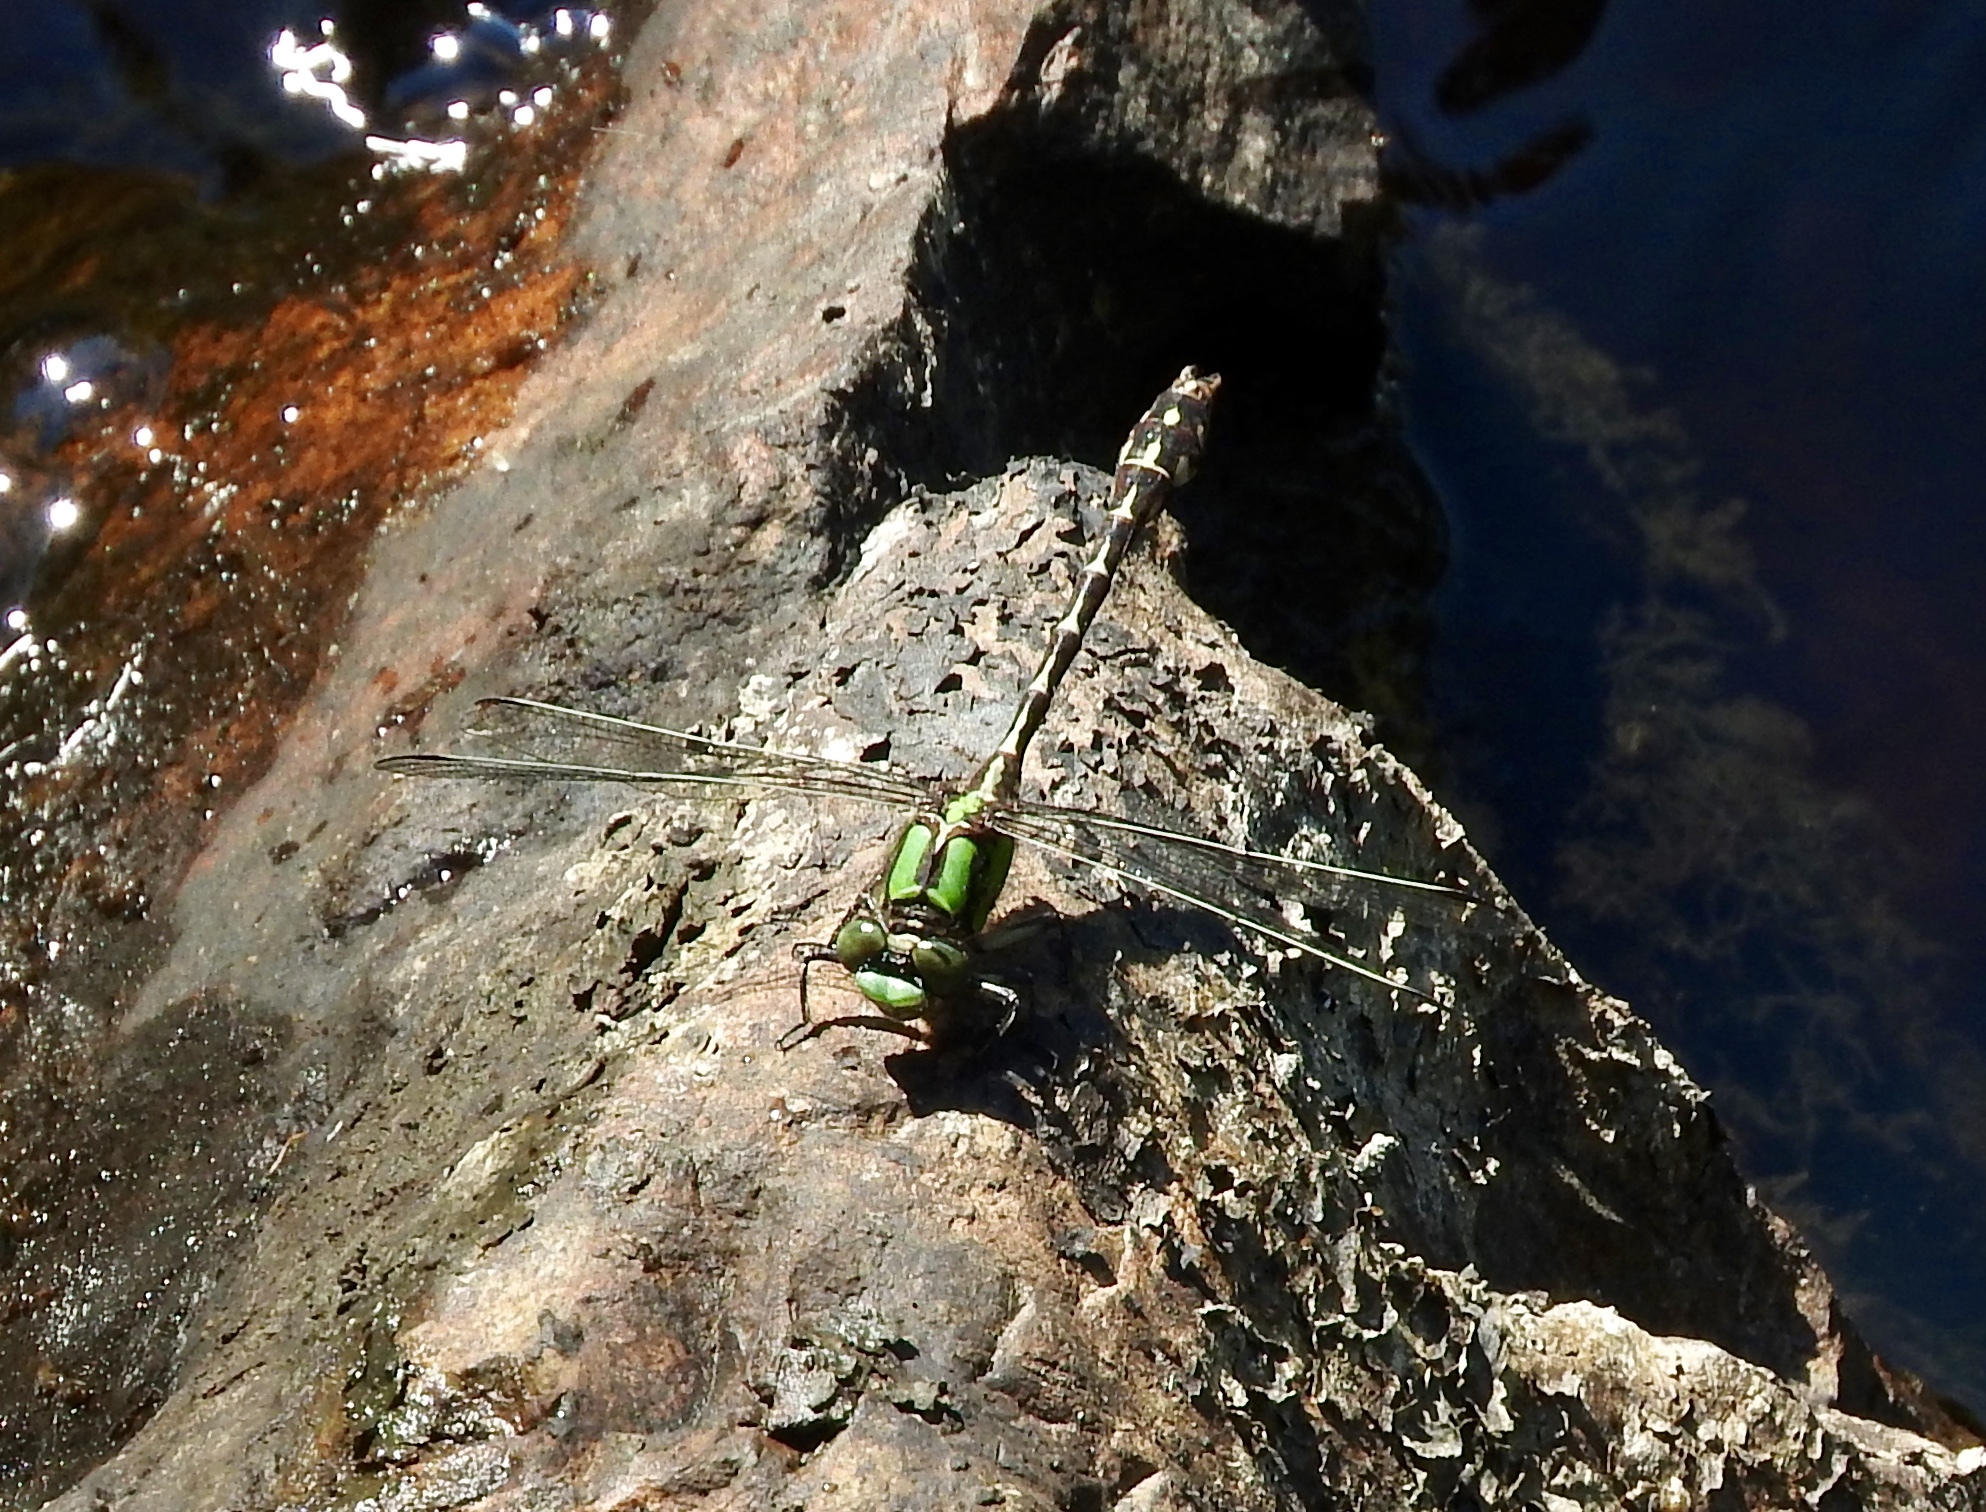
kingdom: Animalia
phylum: Arthropoda
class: Insecta
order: Odonata
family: Gomphidae
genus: Ophiogomphus
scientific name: Ophiogomphus colubrinus
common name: Boreal snaketail
